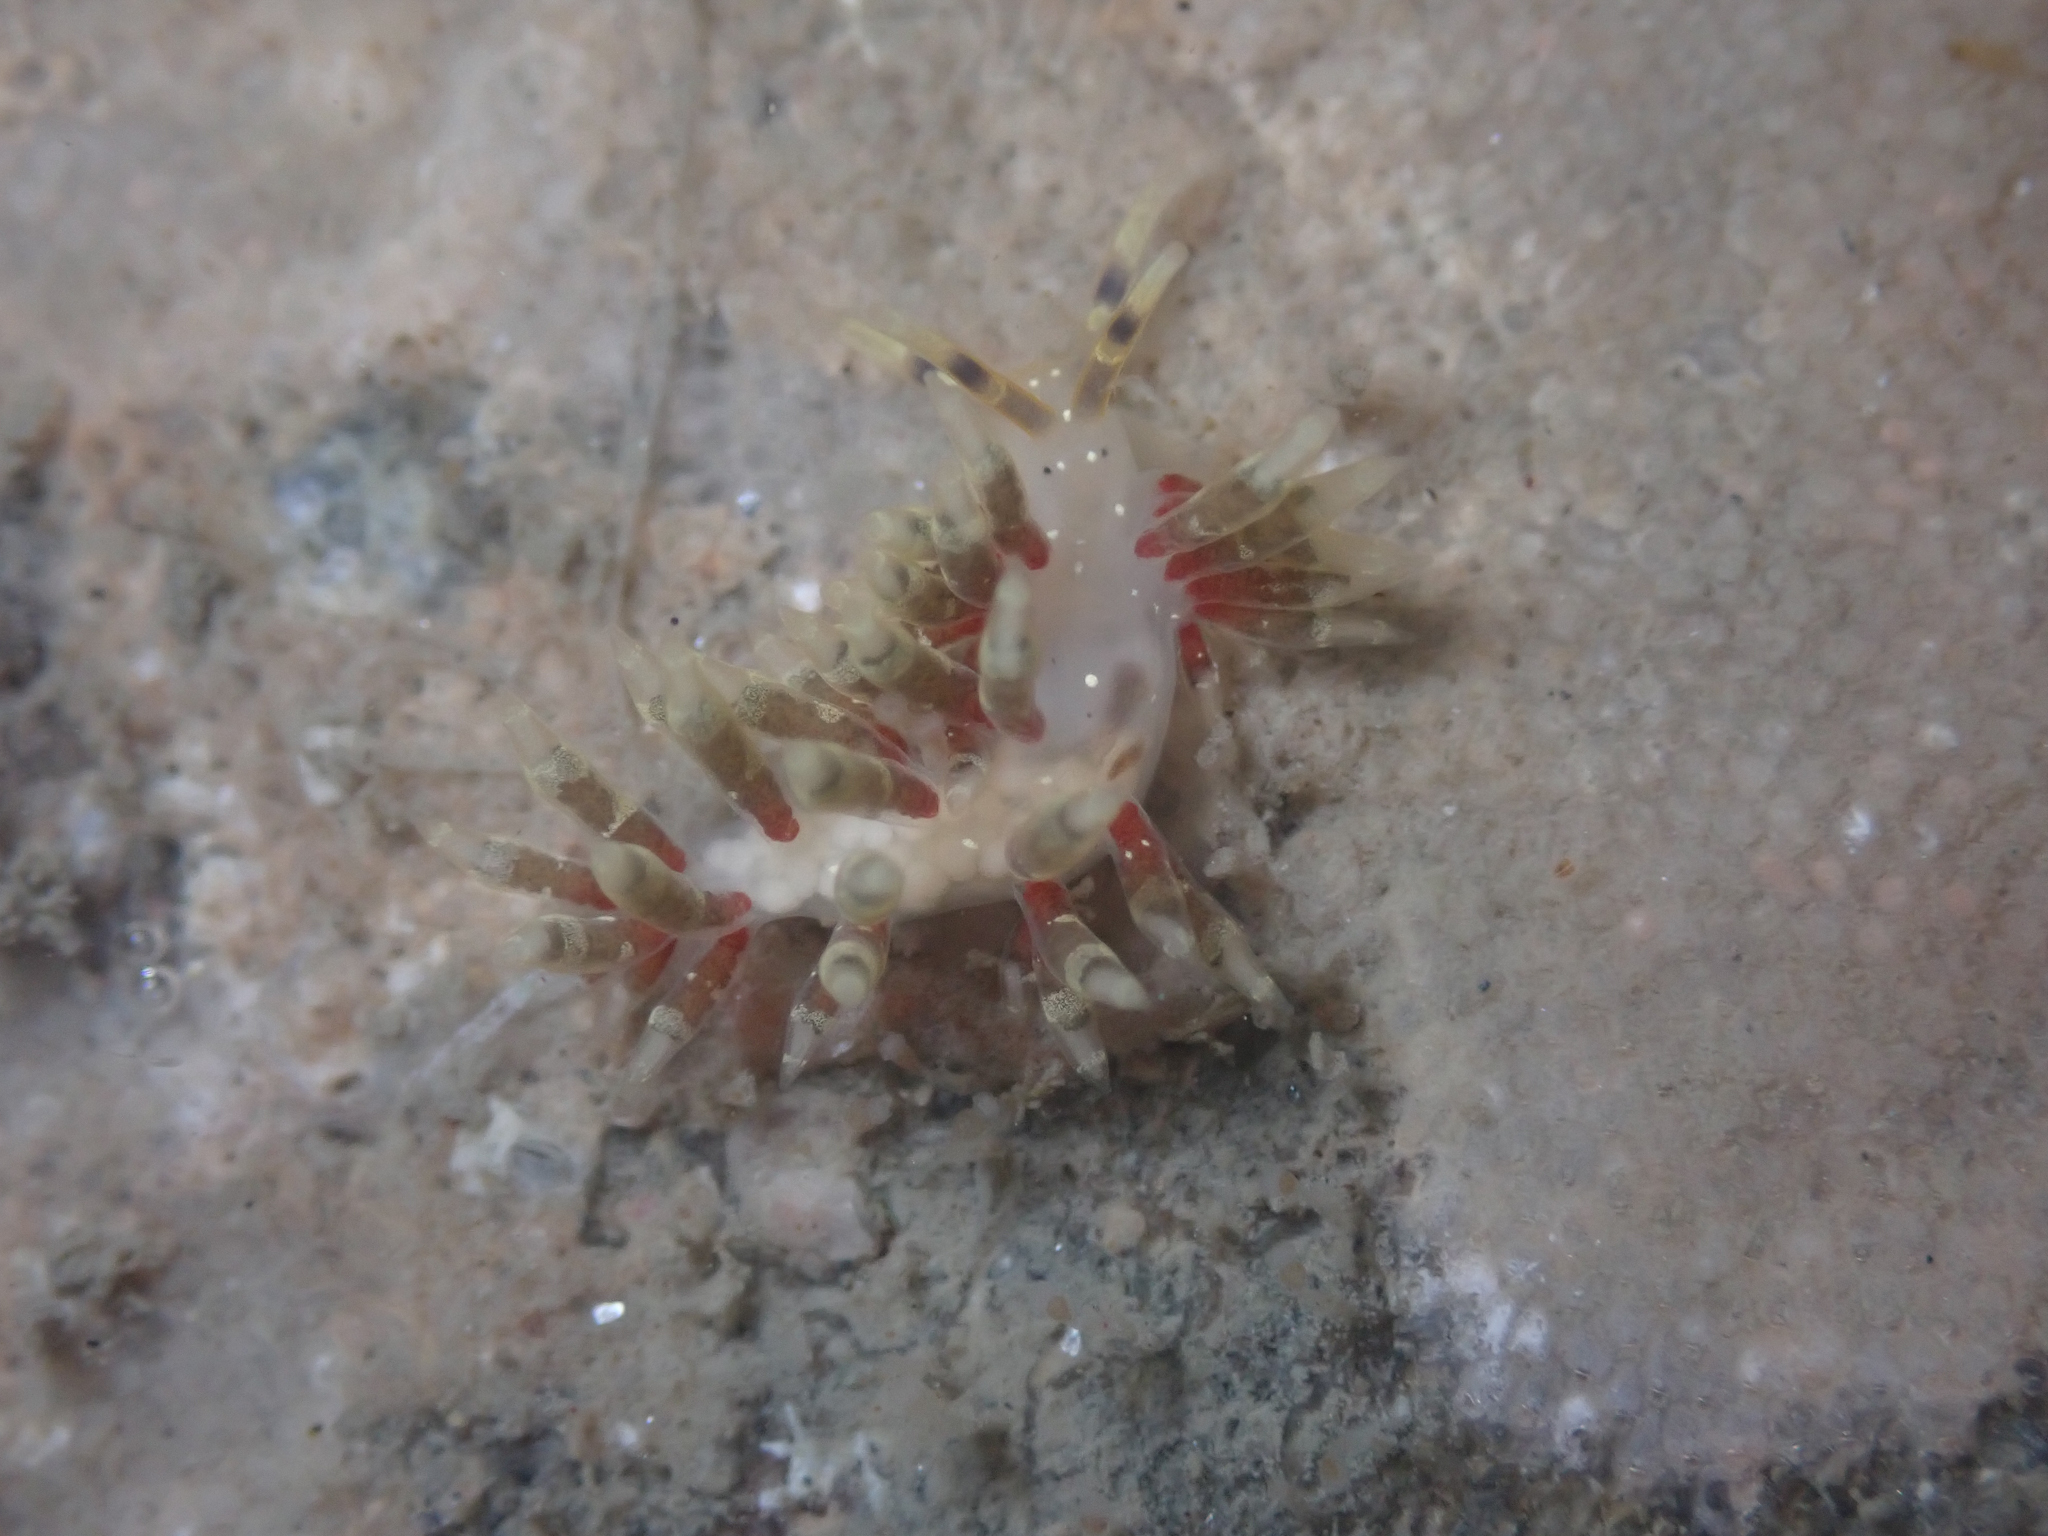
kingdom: Animalia
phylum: Mollusca
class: Gastropoda
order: Nudibranchia
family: Abronicidae
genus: Abronica
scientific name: Abronica abronia
